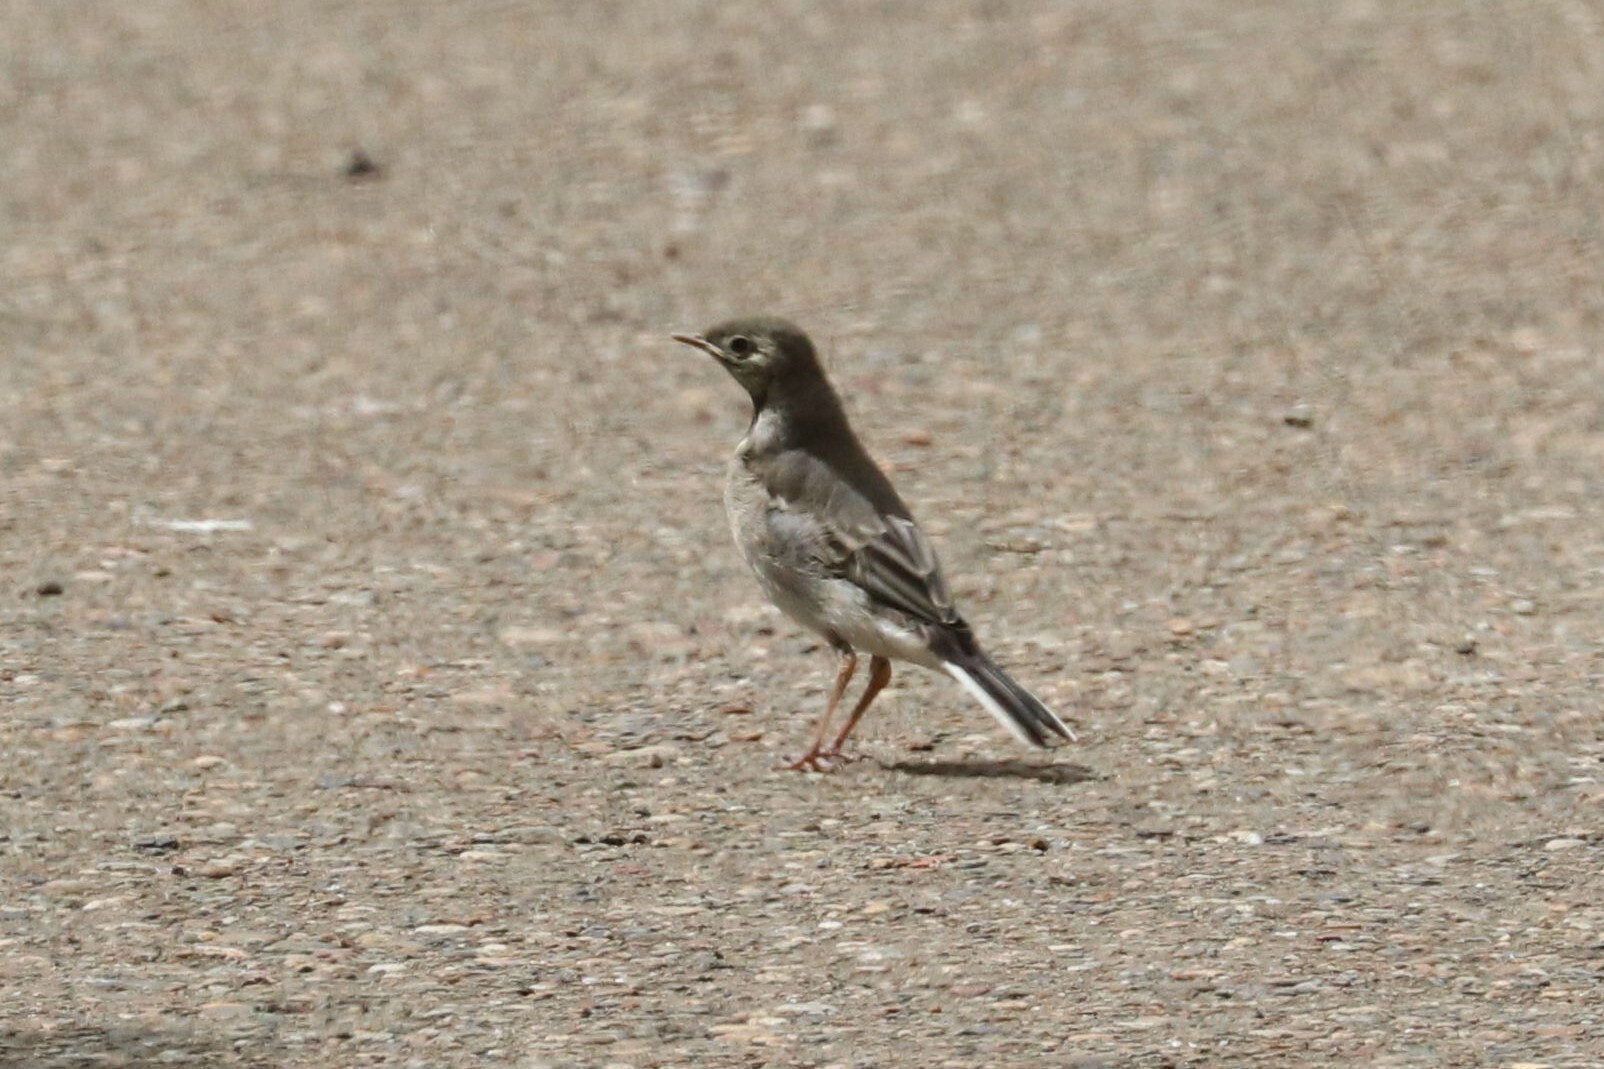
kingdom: Animalia
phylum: Chordata
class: Aves
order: Passeriformes
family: Motacillidae
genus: Motacilla
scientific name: Motacilla alba
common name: White wagtail
